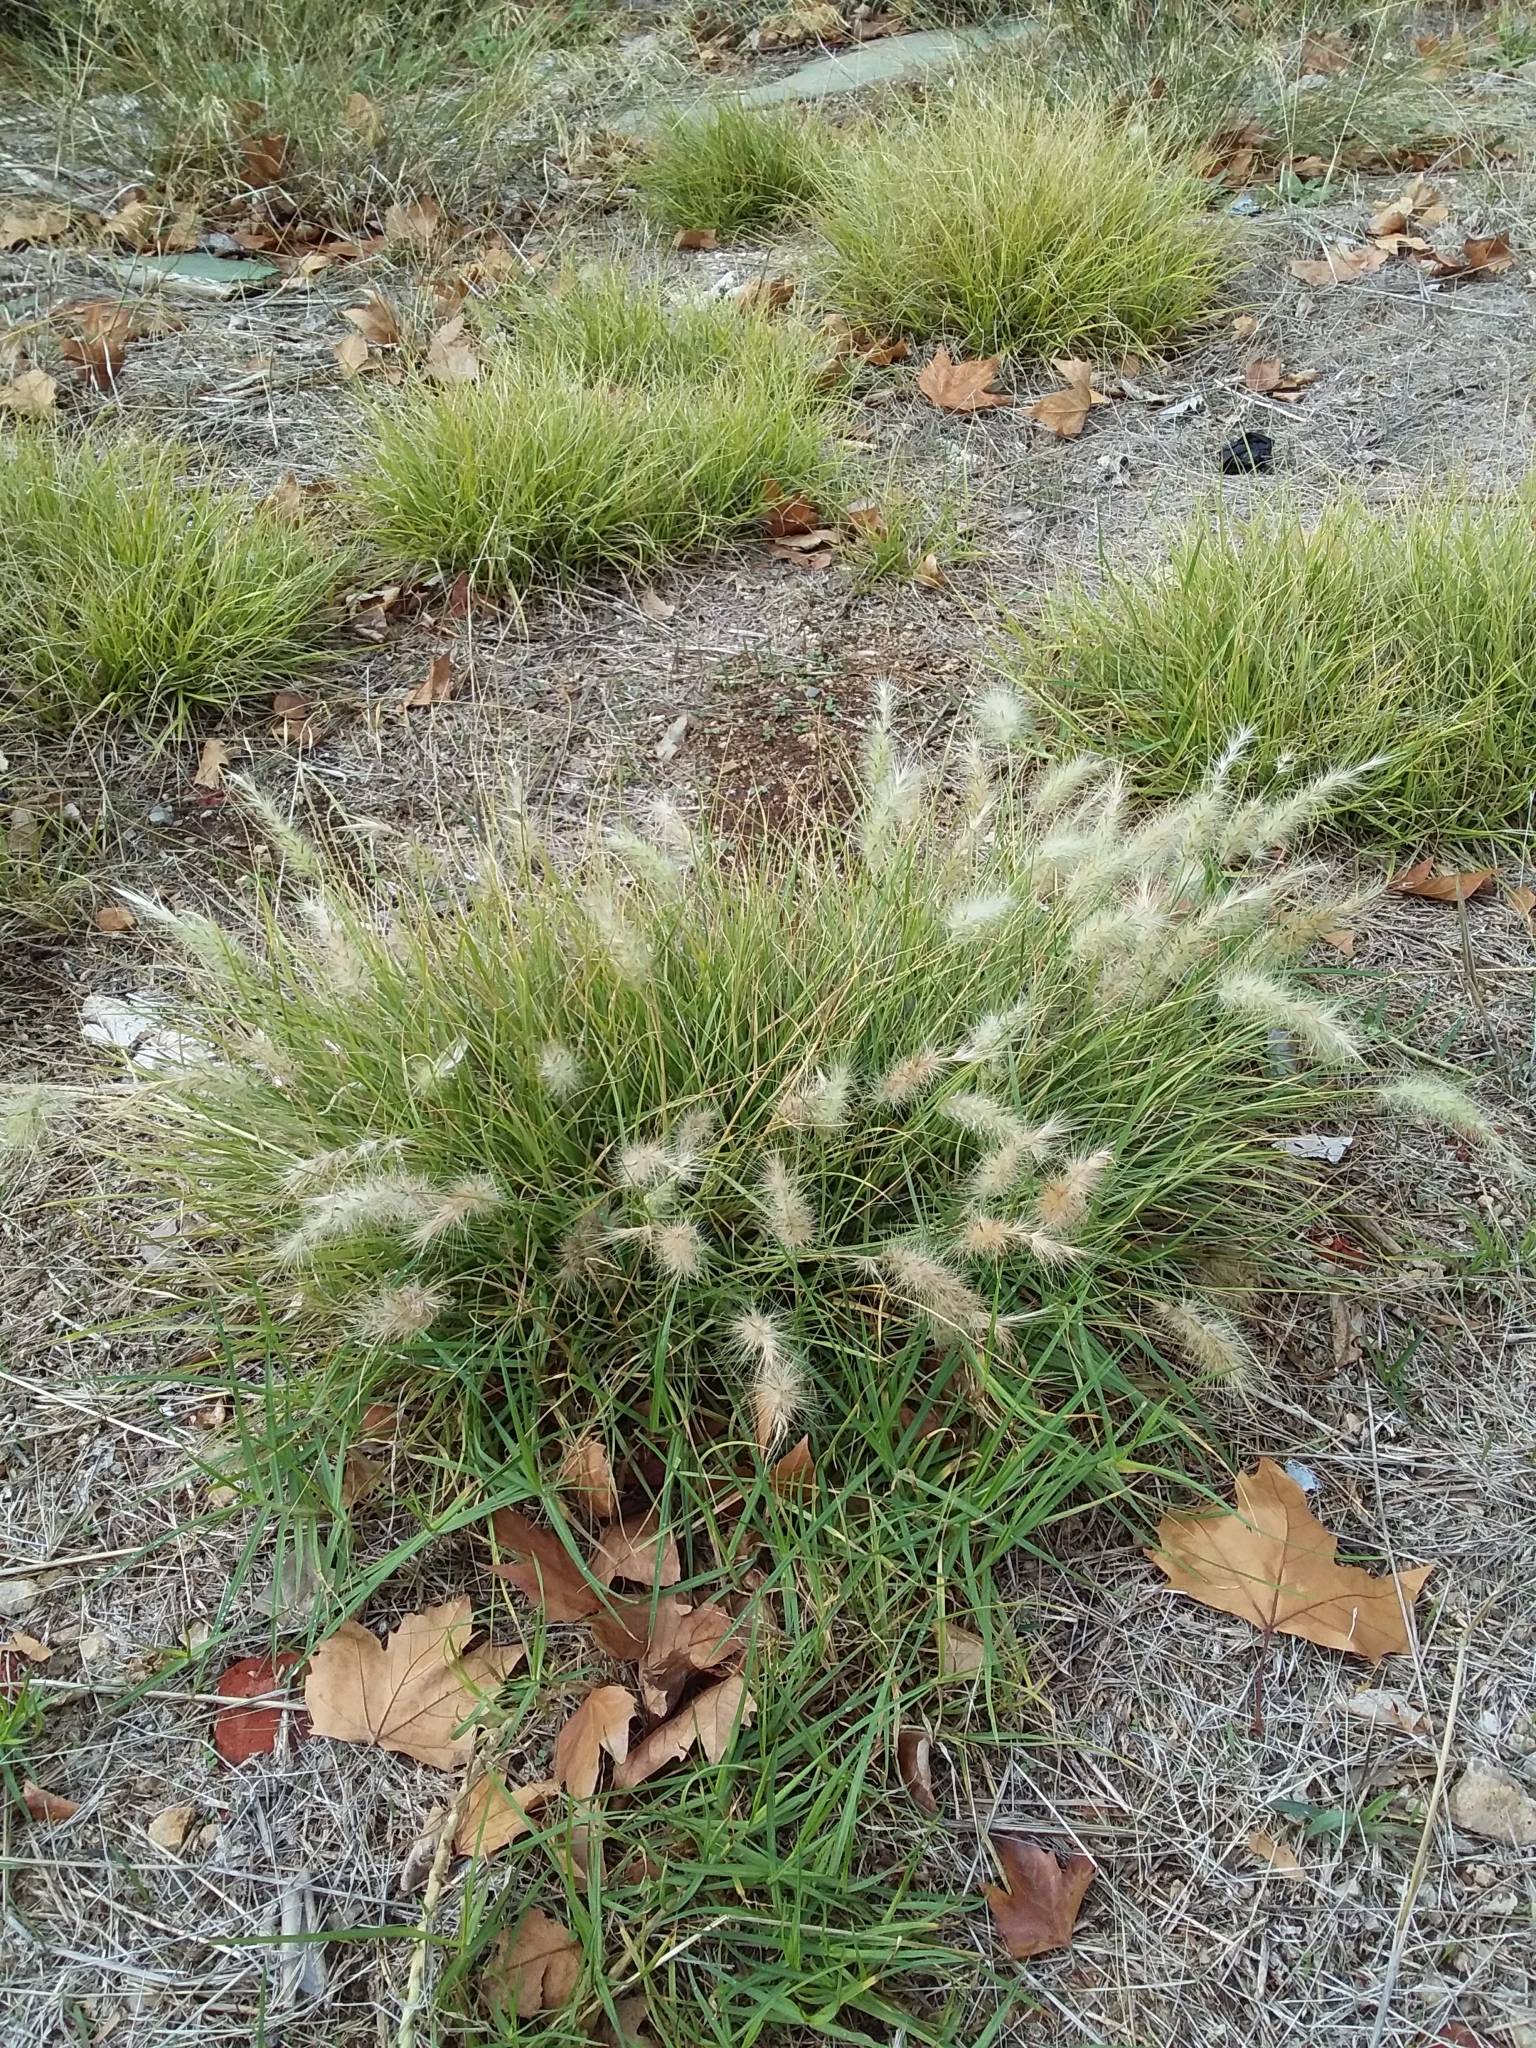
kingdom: Plantae
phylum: Tracheophyta
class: Liliopsida
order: Poales
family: Poaceae
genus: Cenchrus
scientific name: Cenchrus longisetus
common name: Feathertop
